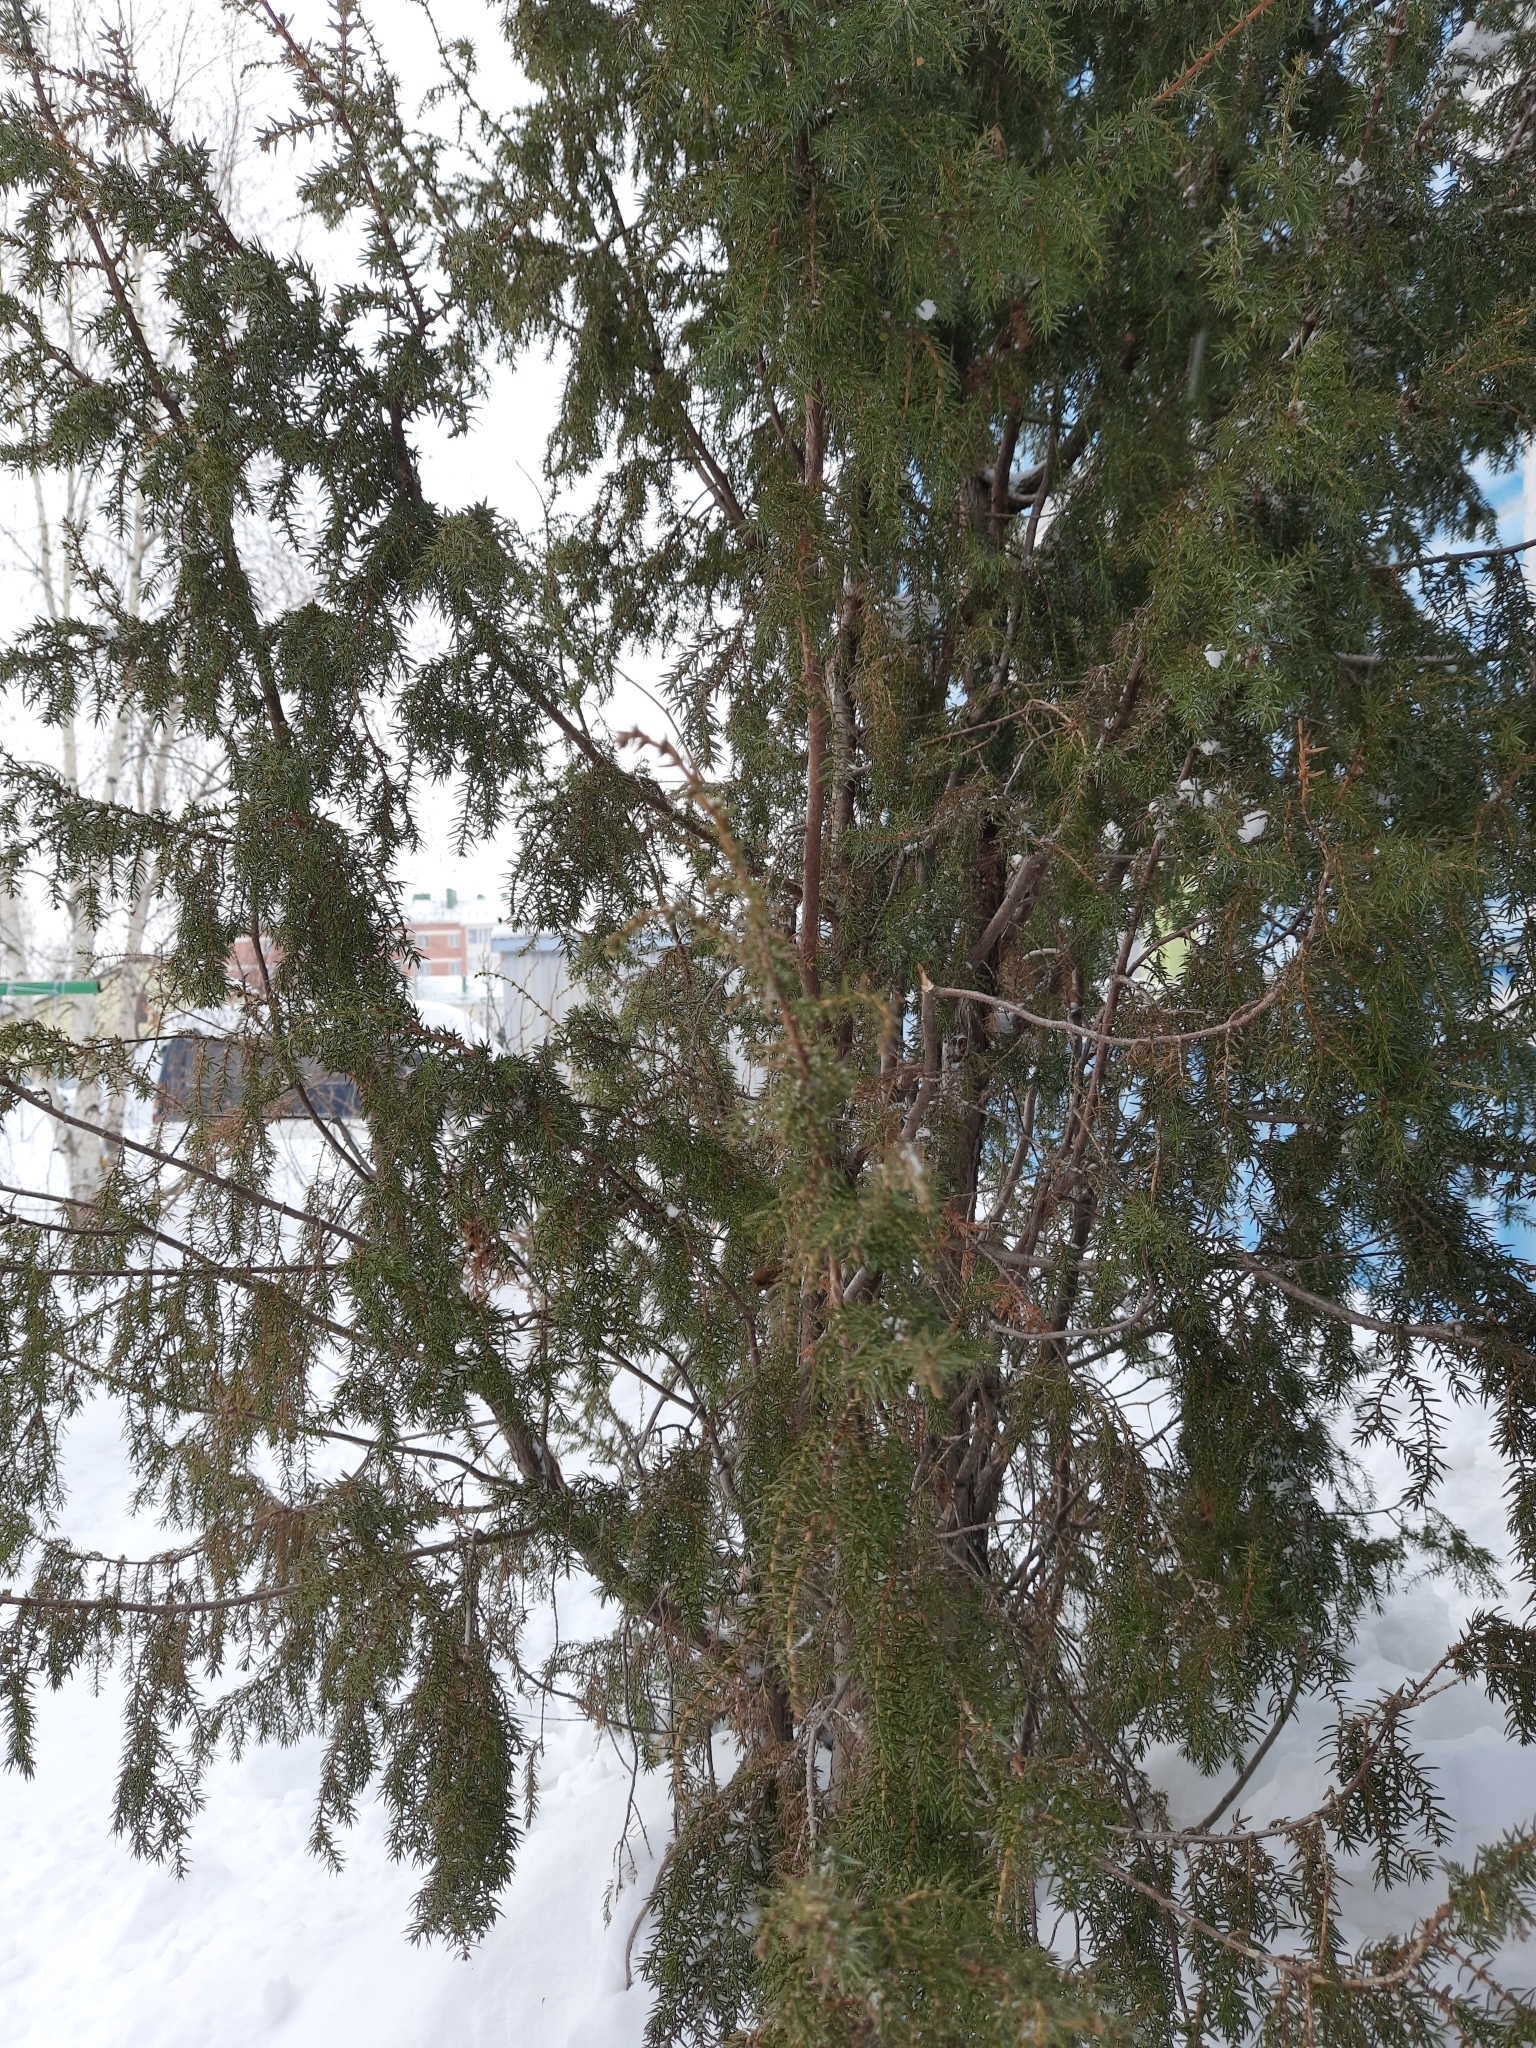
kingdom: Plantae
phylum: Tracheophyta
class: Pinopsida
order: Pinales
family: Cupressaceae
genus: Juniperus
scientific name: Juniperus communis
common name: Common juniper
